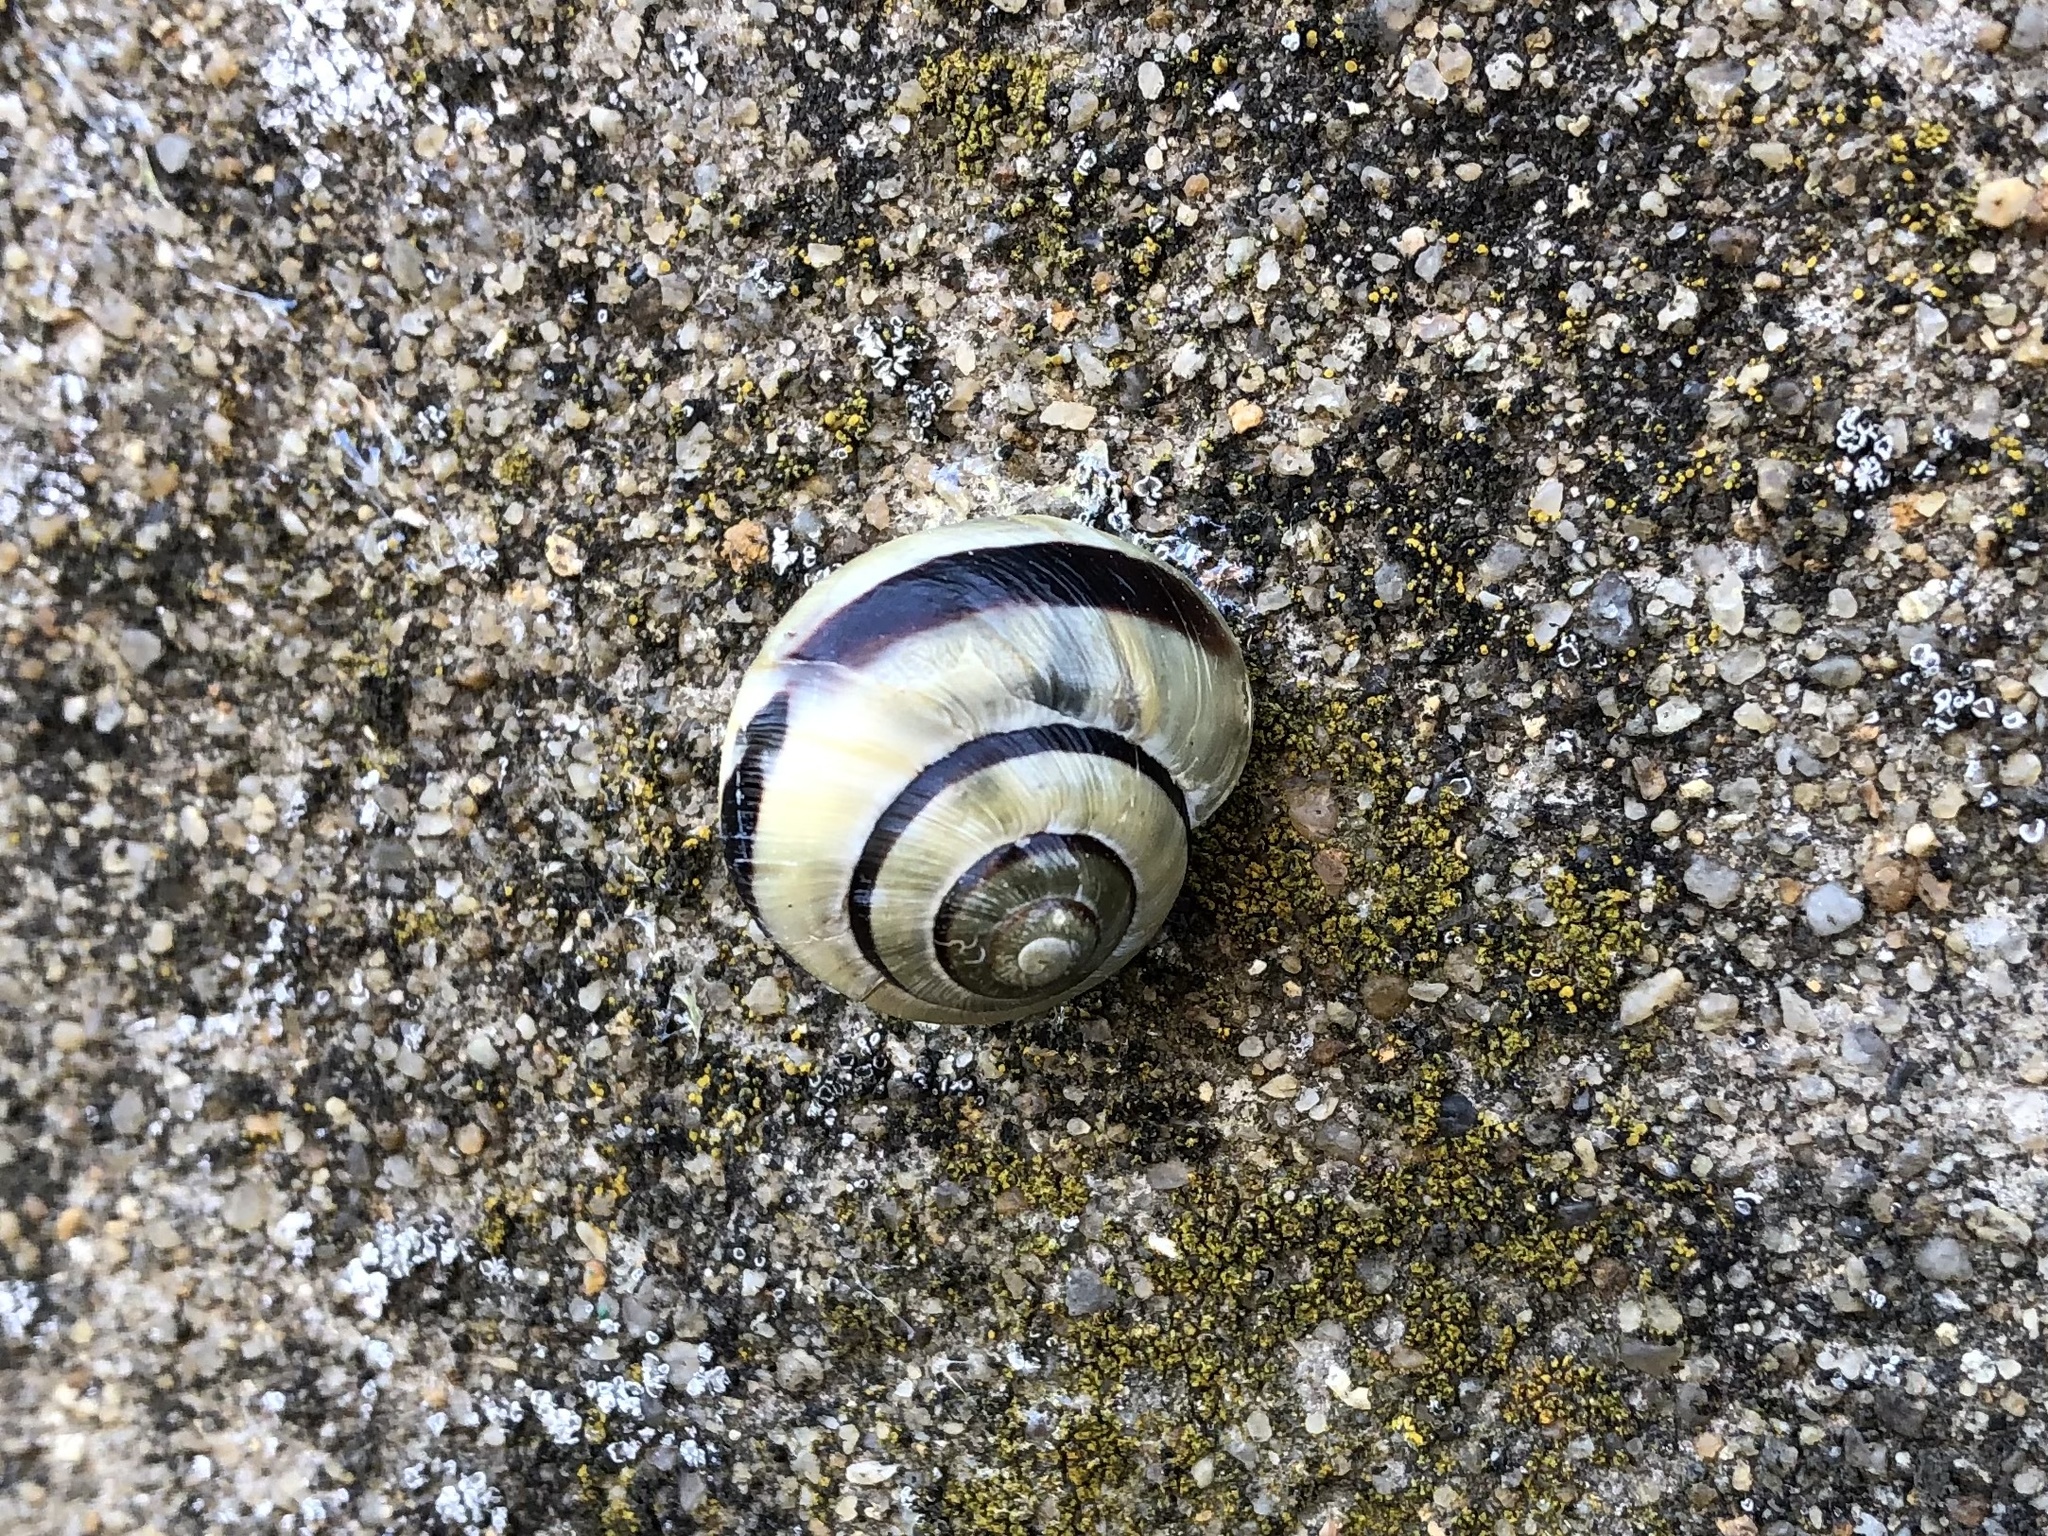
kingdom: Animalia
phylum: Mollusca
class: Gastropoda
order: Stylommatophora
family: Helicidae
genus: Cepaea
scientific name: Cepaea
